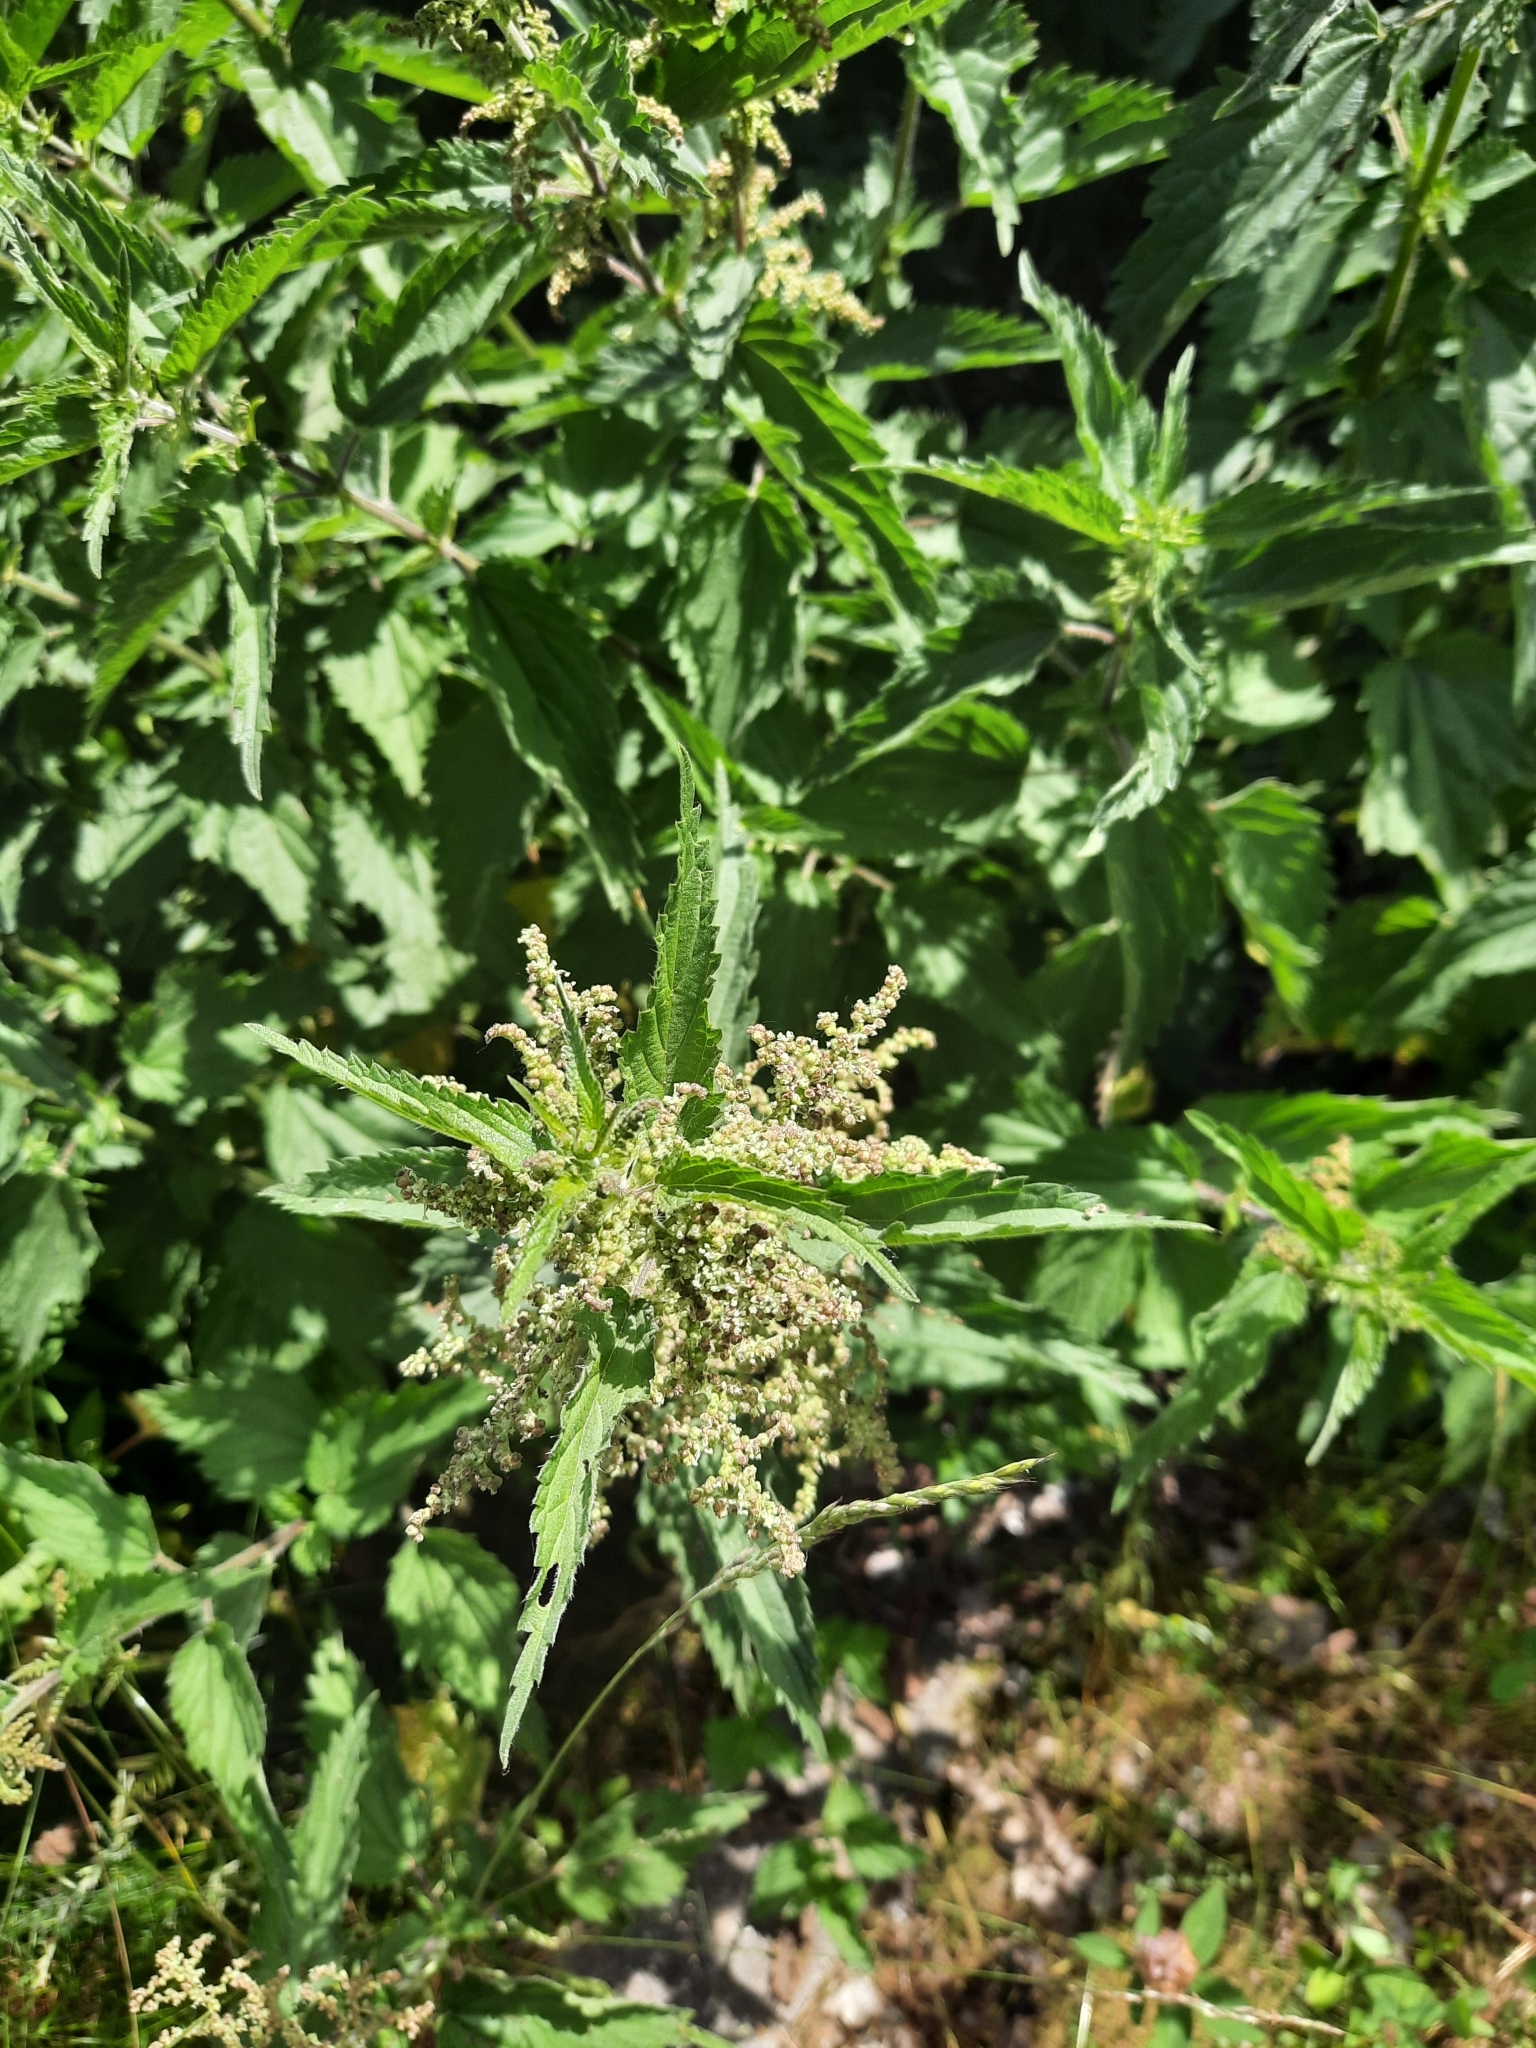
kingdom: Plantae
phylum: Tracheophyta
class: Magnoliopsida
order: Rosales
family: Urticaceae
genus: Urtica
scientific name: Urtica dioica
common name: Common nettle
